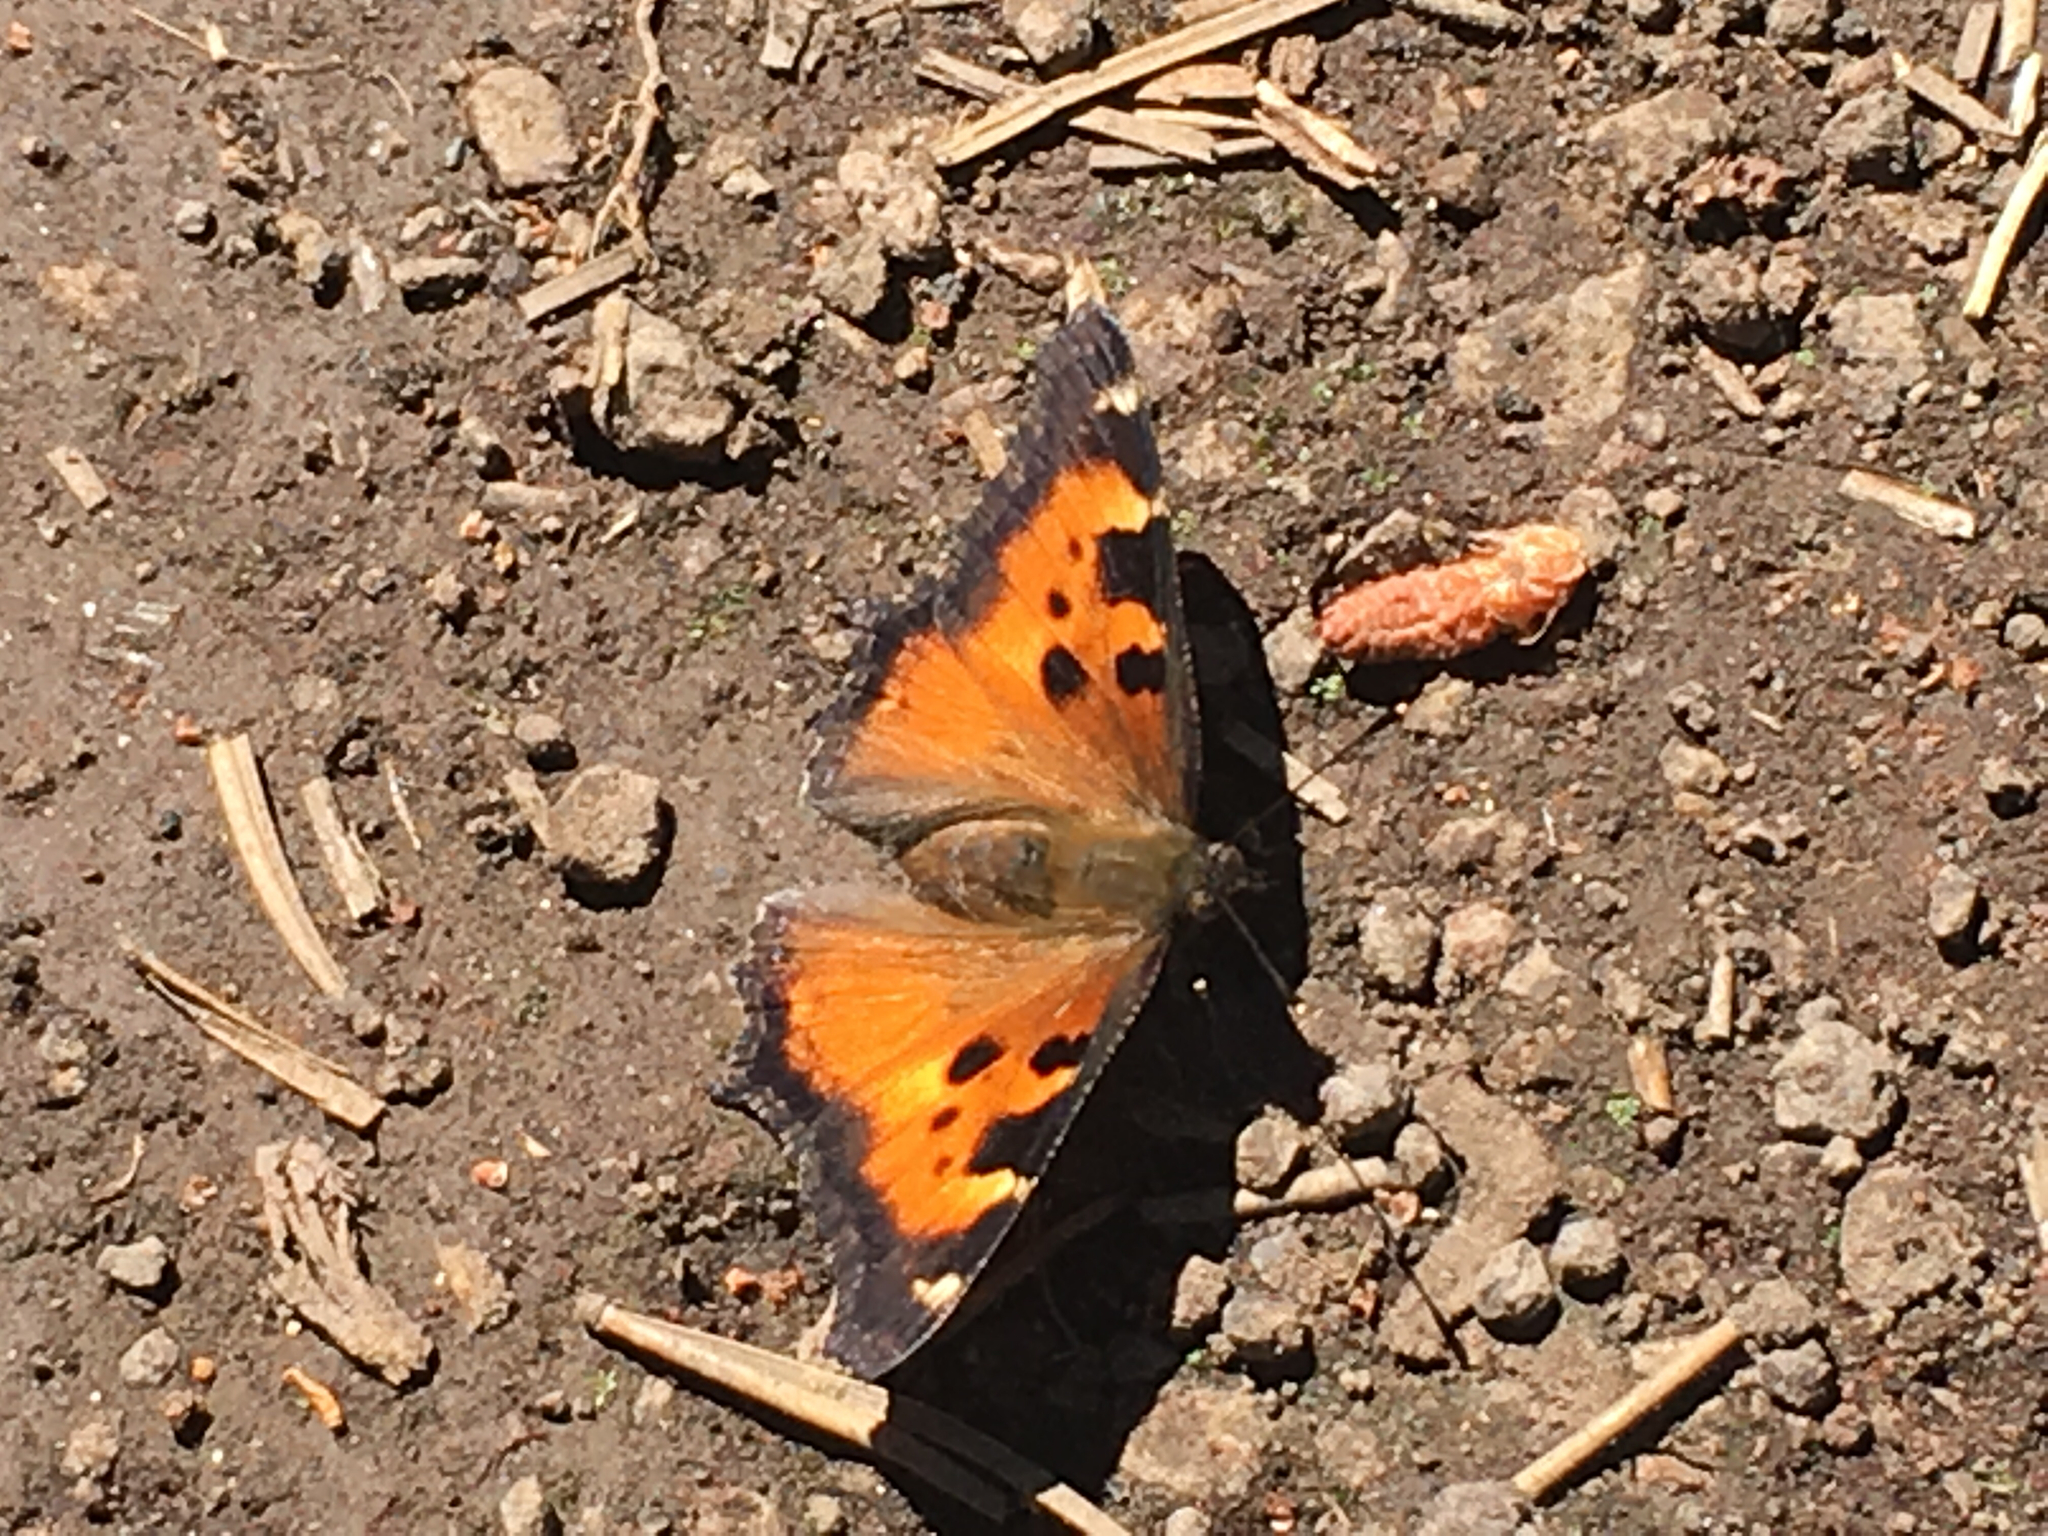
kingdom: Animalia
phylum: Arthropoda
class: Insecta
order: Lepidoptera
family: Nymphalidae
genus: Nymphalis
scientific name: Nymphalis californica
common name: California tortoiseshell
